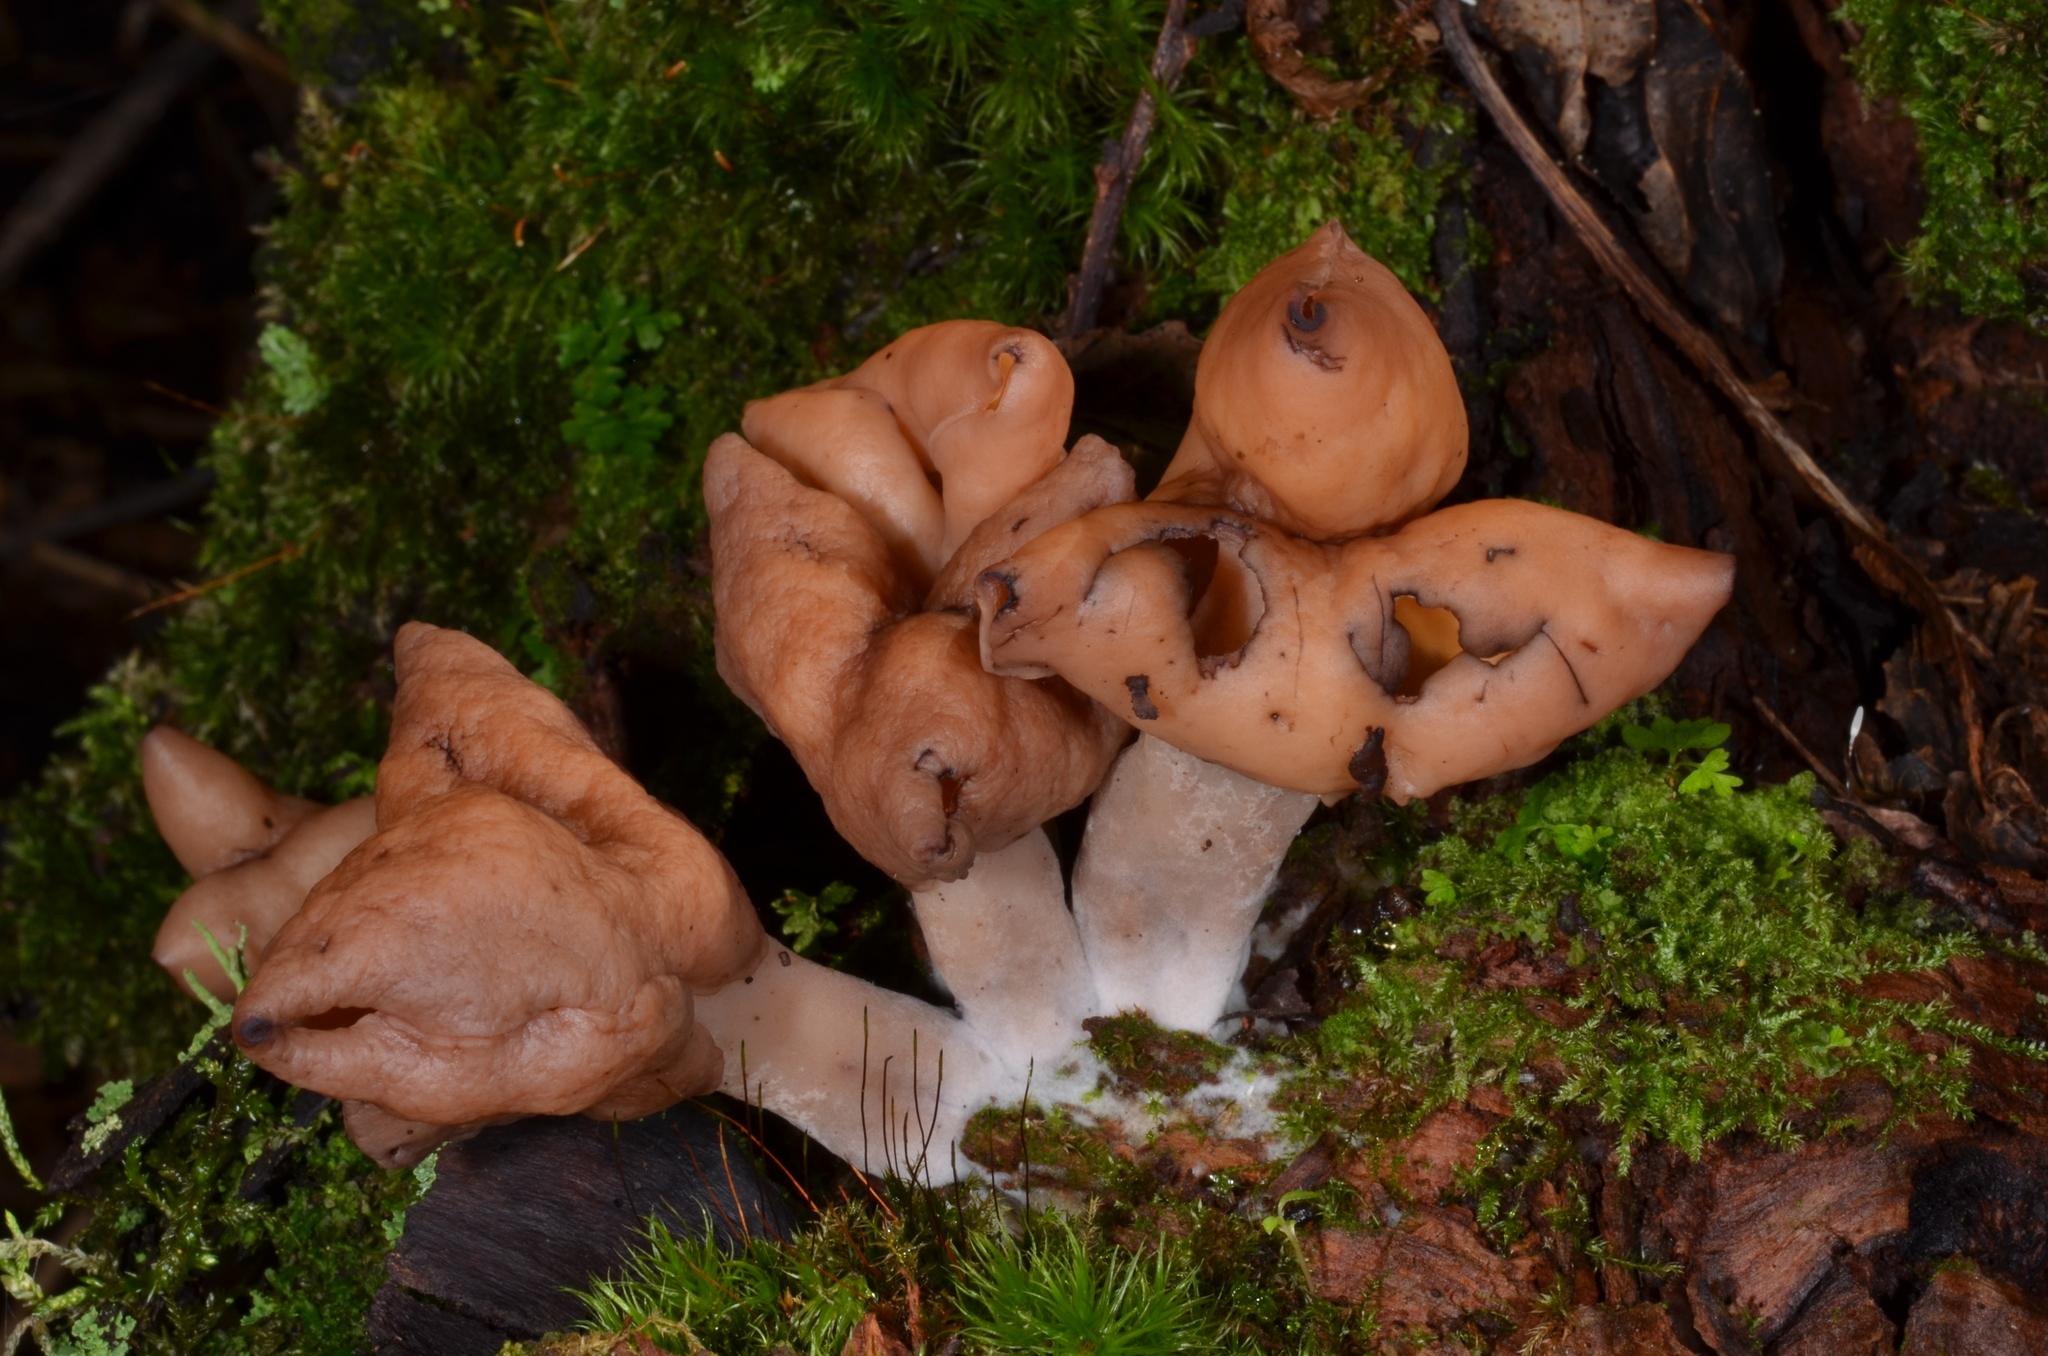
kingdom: Fungi
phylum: Ascomycota
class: Pezizomycetes
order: Pezizales
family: Discinaceae
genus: Gyromitra
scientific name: Gyromitra infula
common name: Pouched false morel
